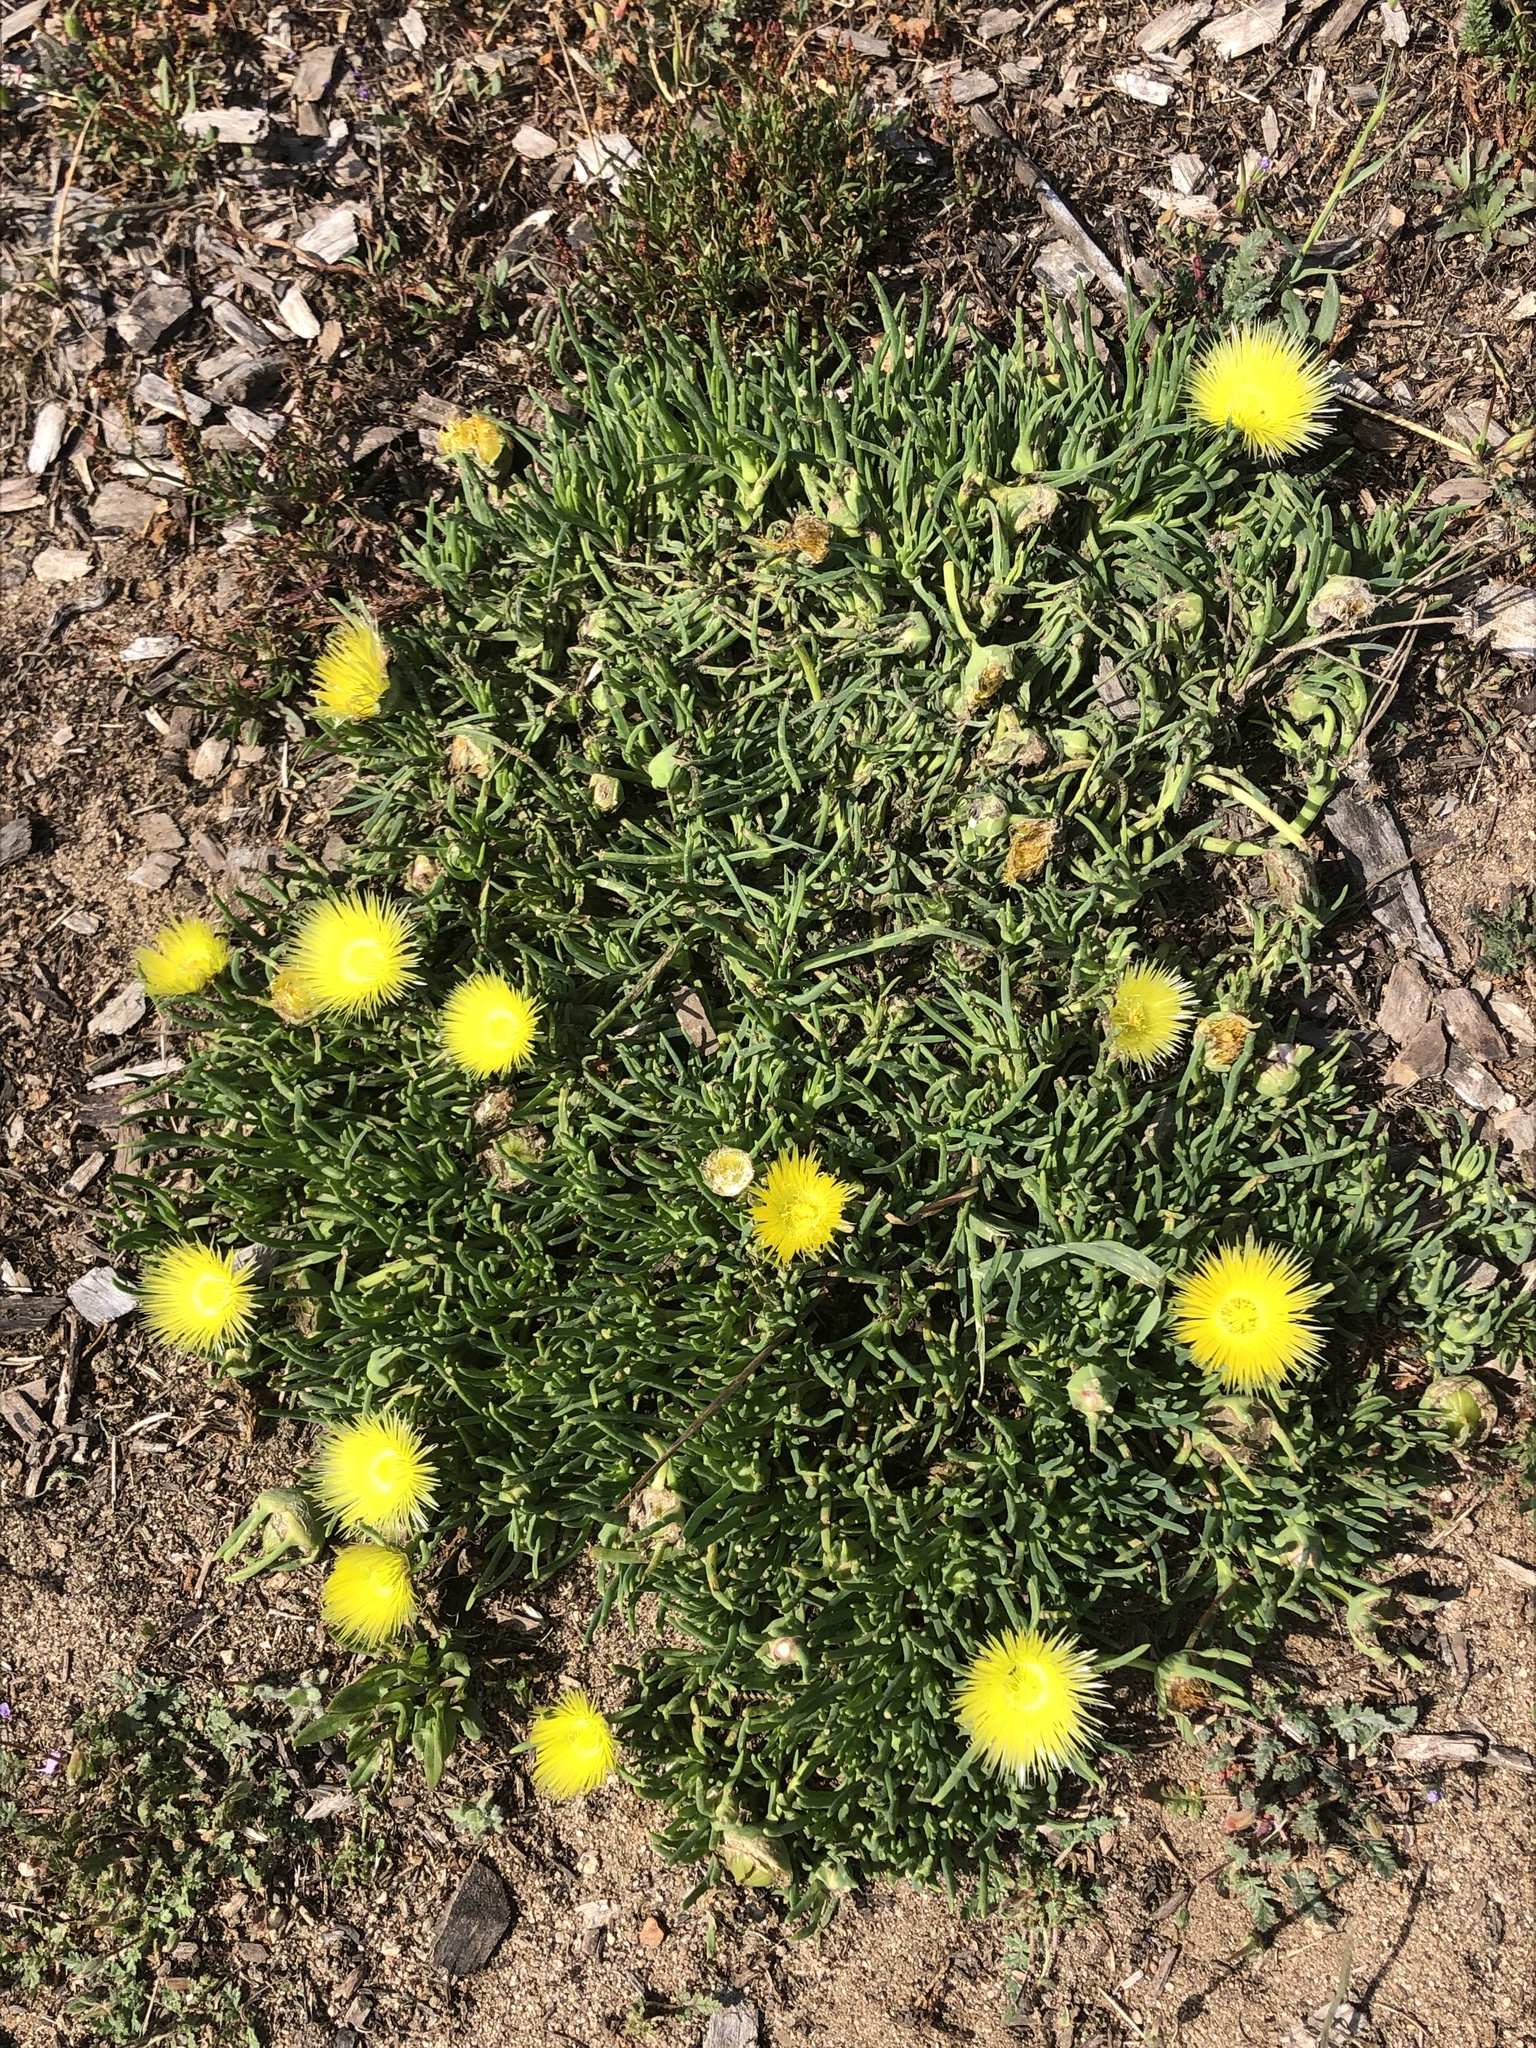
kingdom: Plantae
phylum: Tracheophyta
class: Magnoliopsida
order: Caryophyllales
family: Aizoaceae
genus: Carpobrotus
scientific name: Carpobrotus edulis
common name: Hottentot-fig
